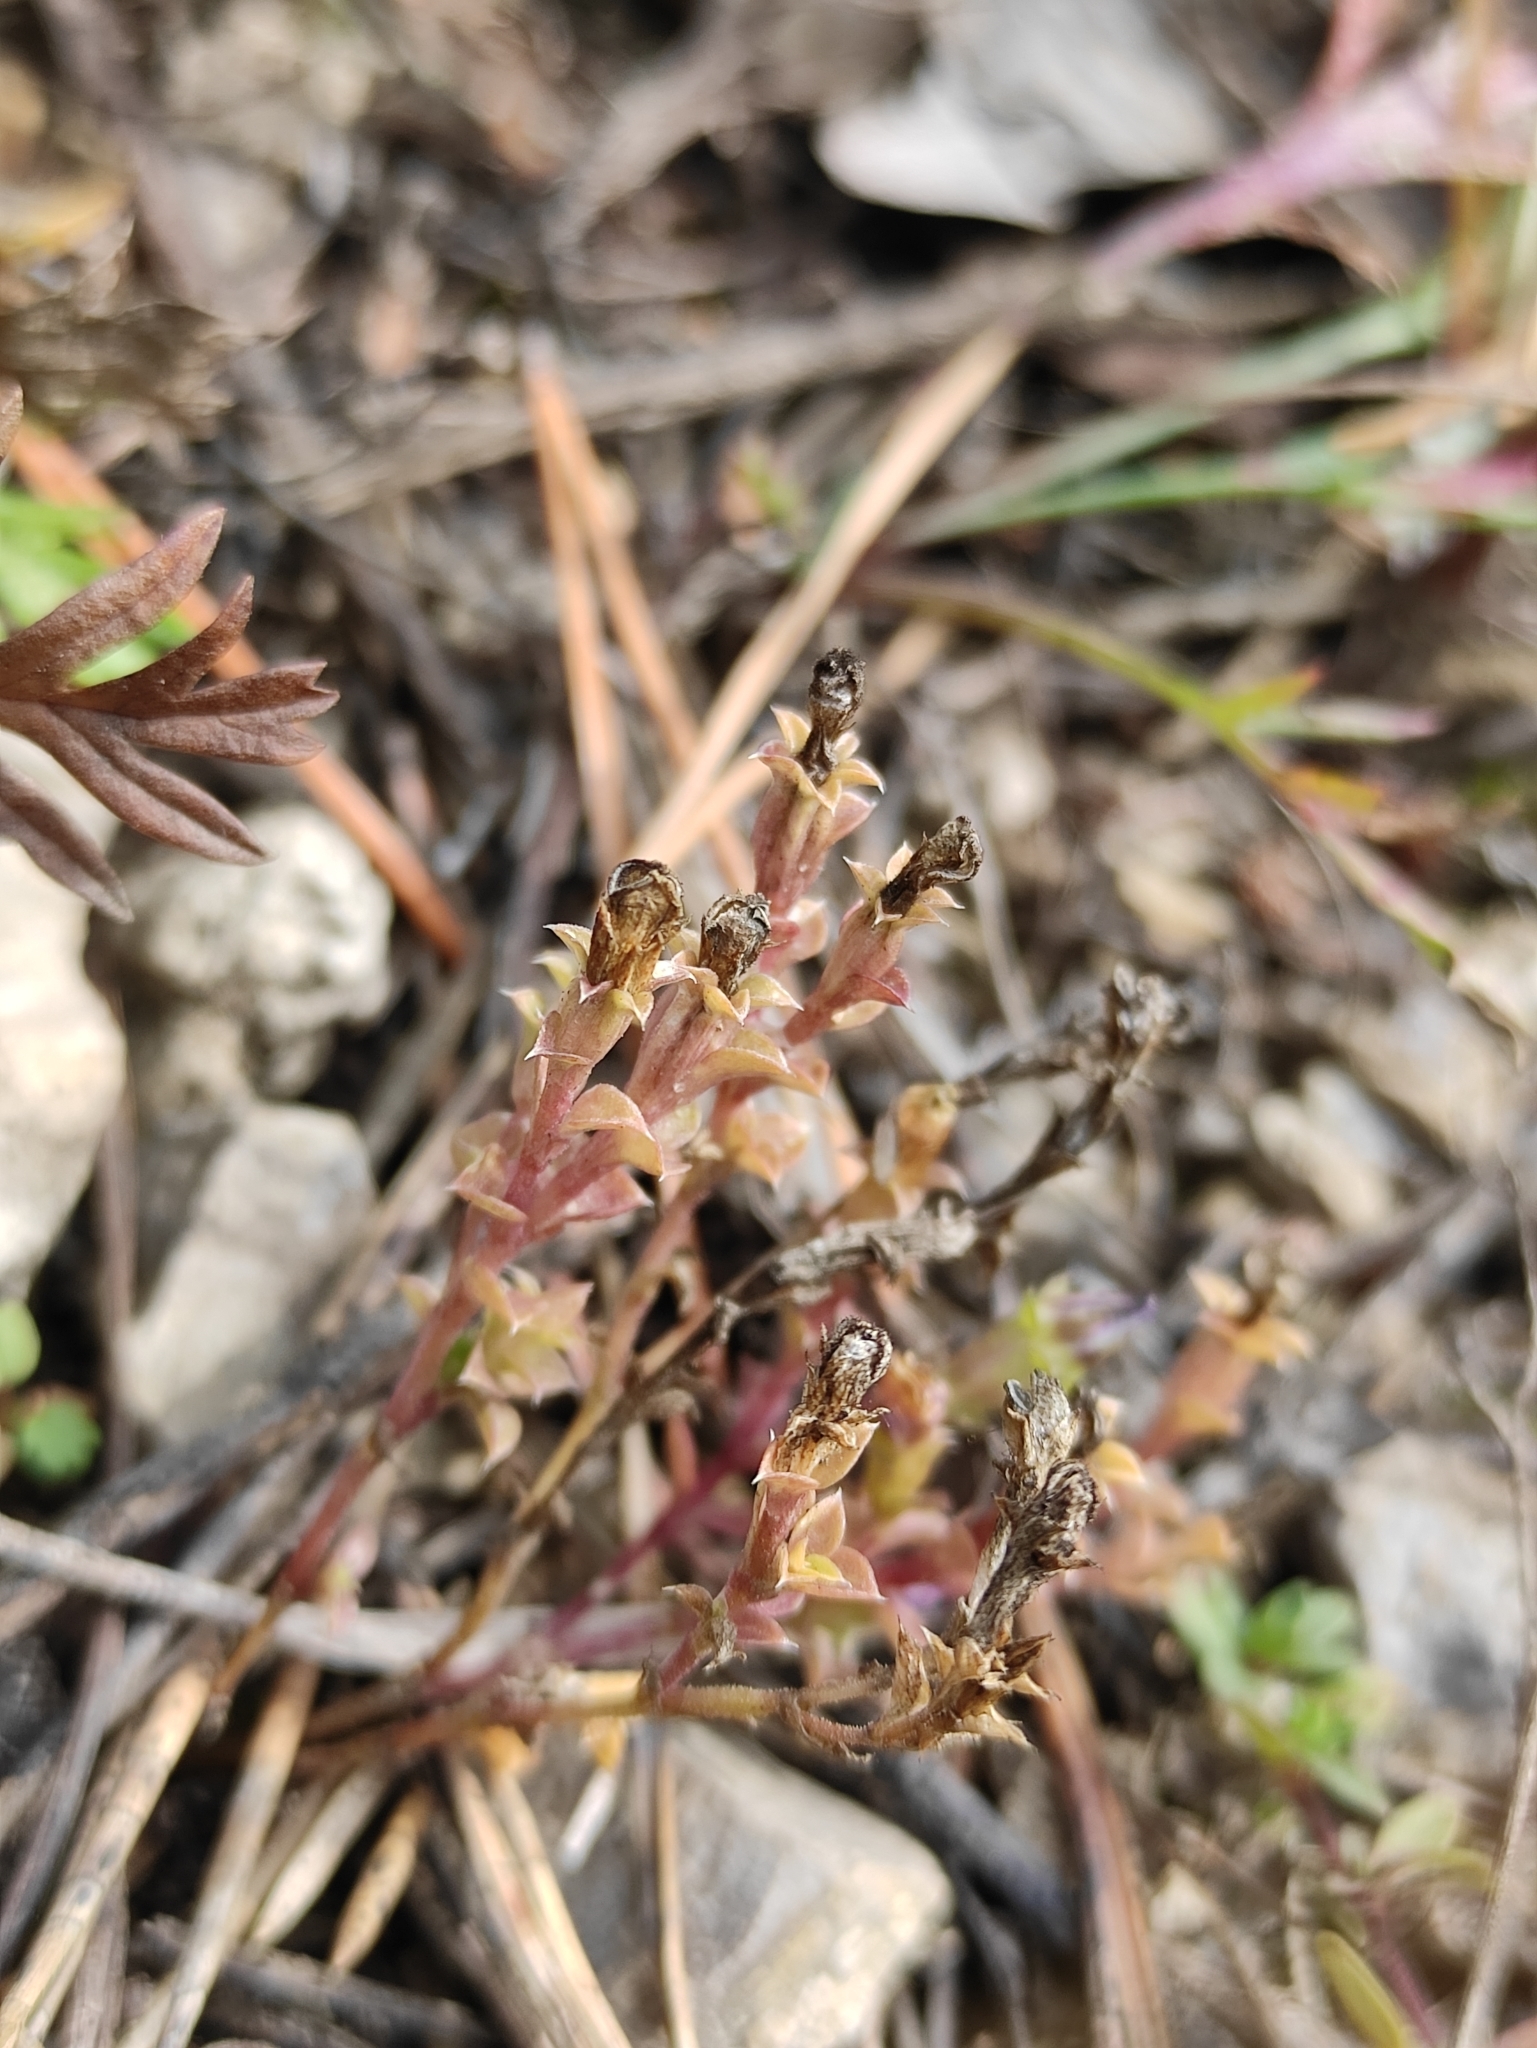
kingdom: Plantae
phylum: Tracheophyta
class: Magnoliopsida
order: Gentianales
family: Gentianaceae
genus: Gentiana
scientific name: Gentiana squarrosa
